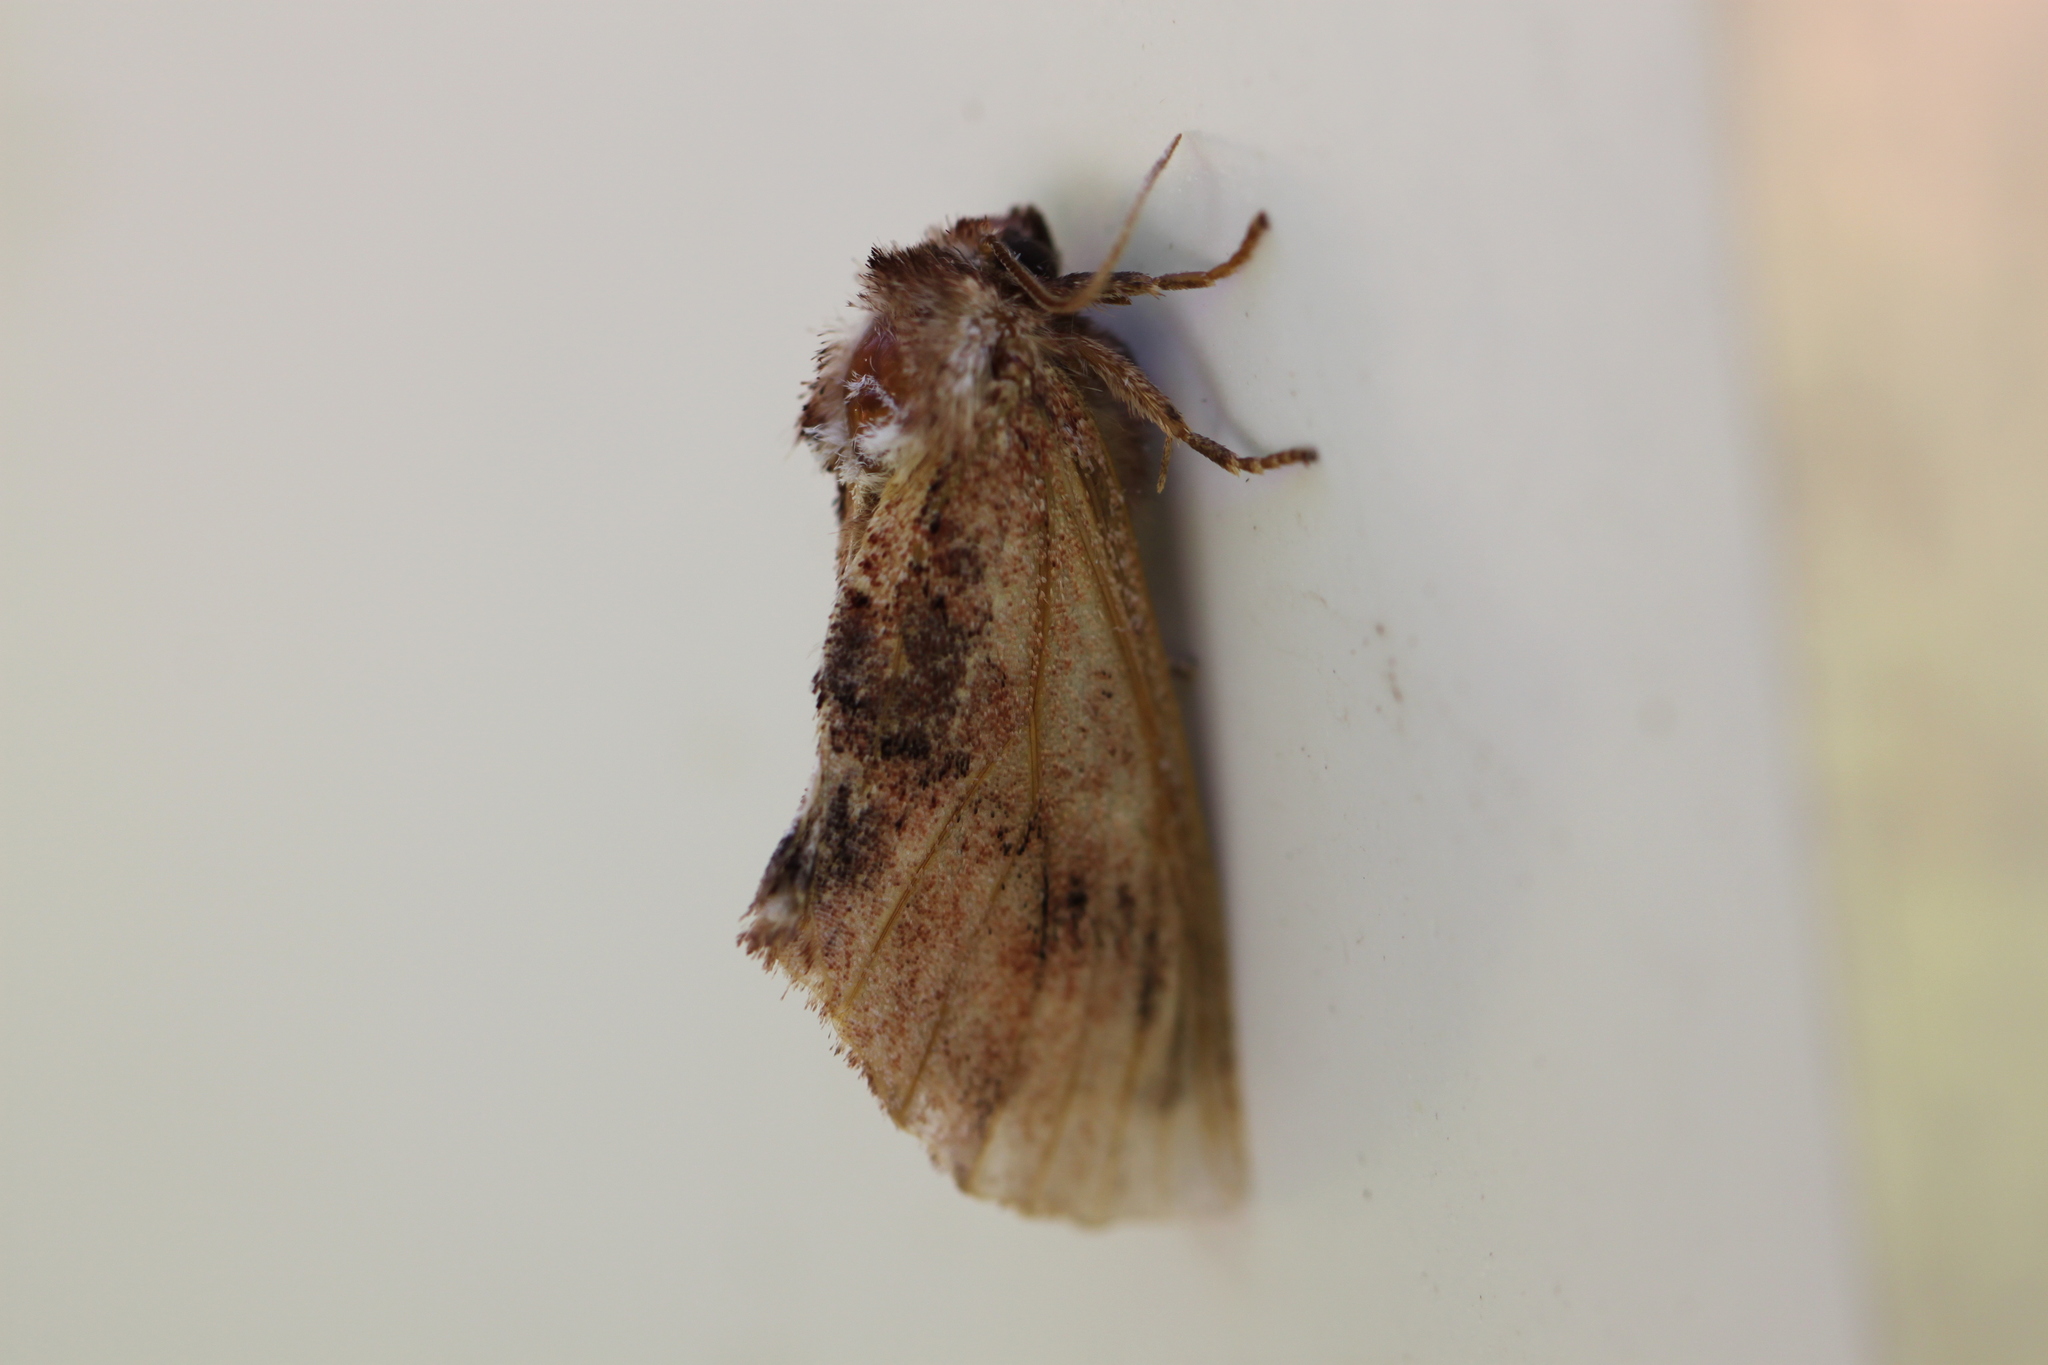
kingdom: Animalia
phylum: Arthropoda
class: Insecta
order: Lepidoptera
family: Notodontidae
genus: Ptilodon
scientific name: Ptilodon capucina
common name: Coxcomb prominent
